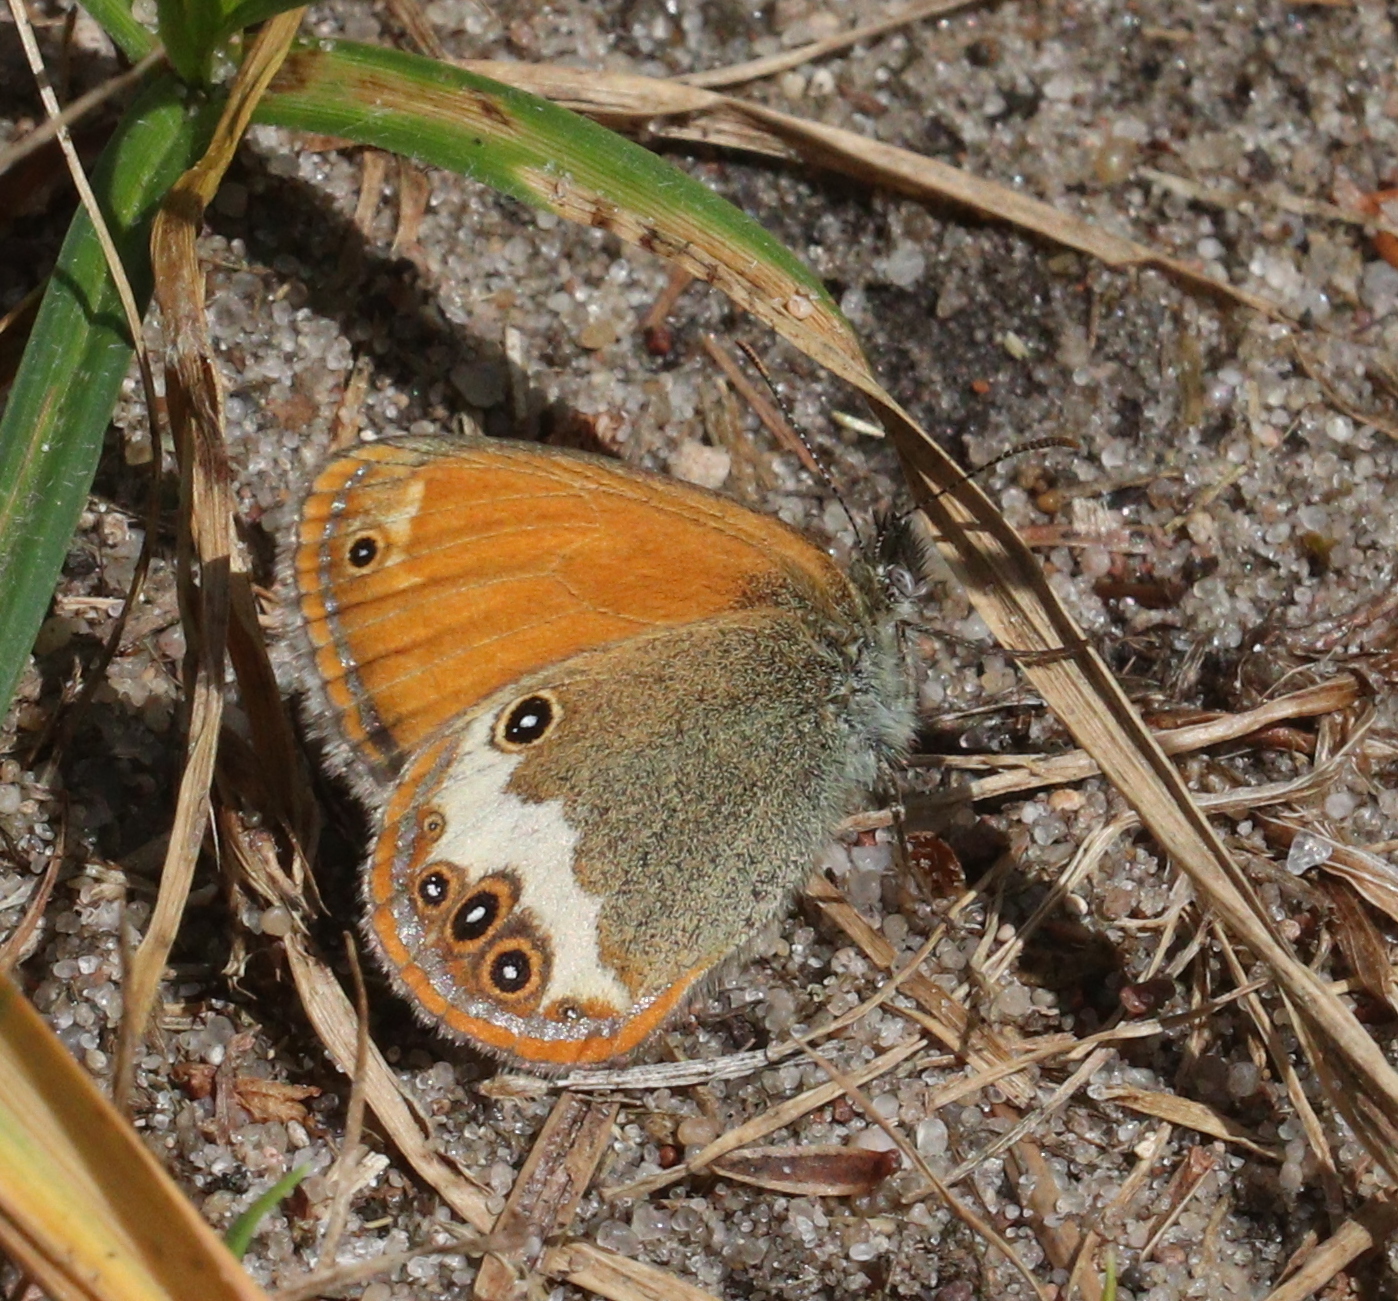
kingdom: Animalia
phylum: Arthropoda
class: Insecta
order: Lepidoptera
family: Nymphalidae
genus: Coenonympha
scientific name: Coenonympha arcania
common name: Pearly heath
